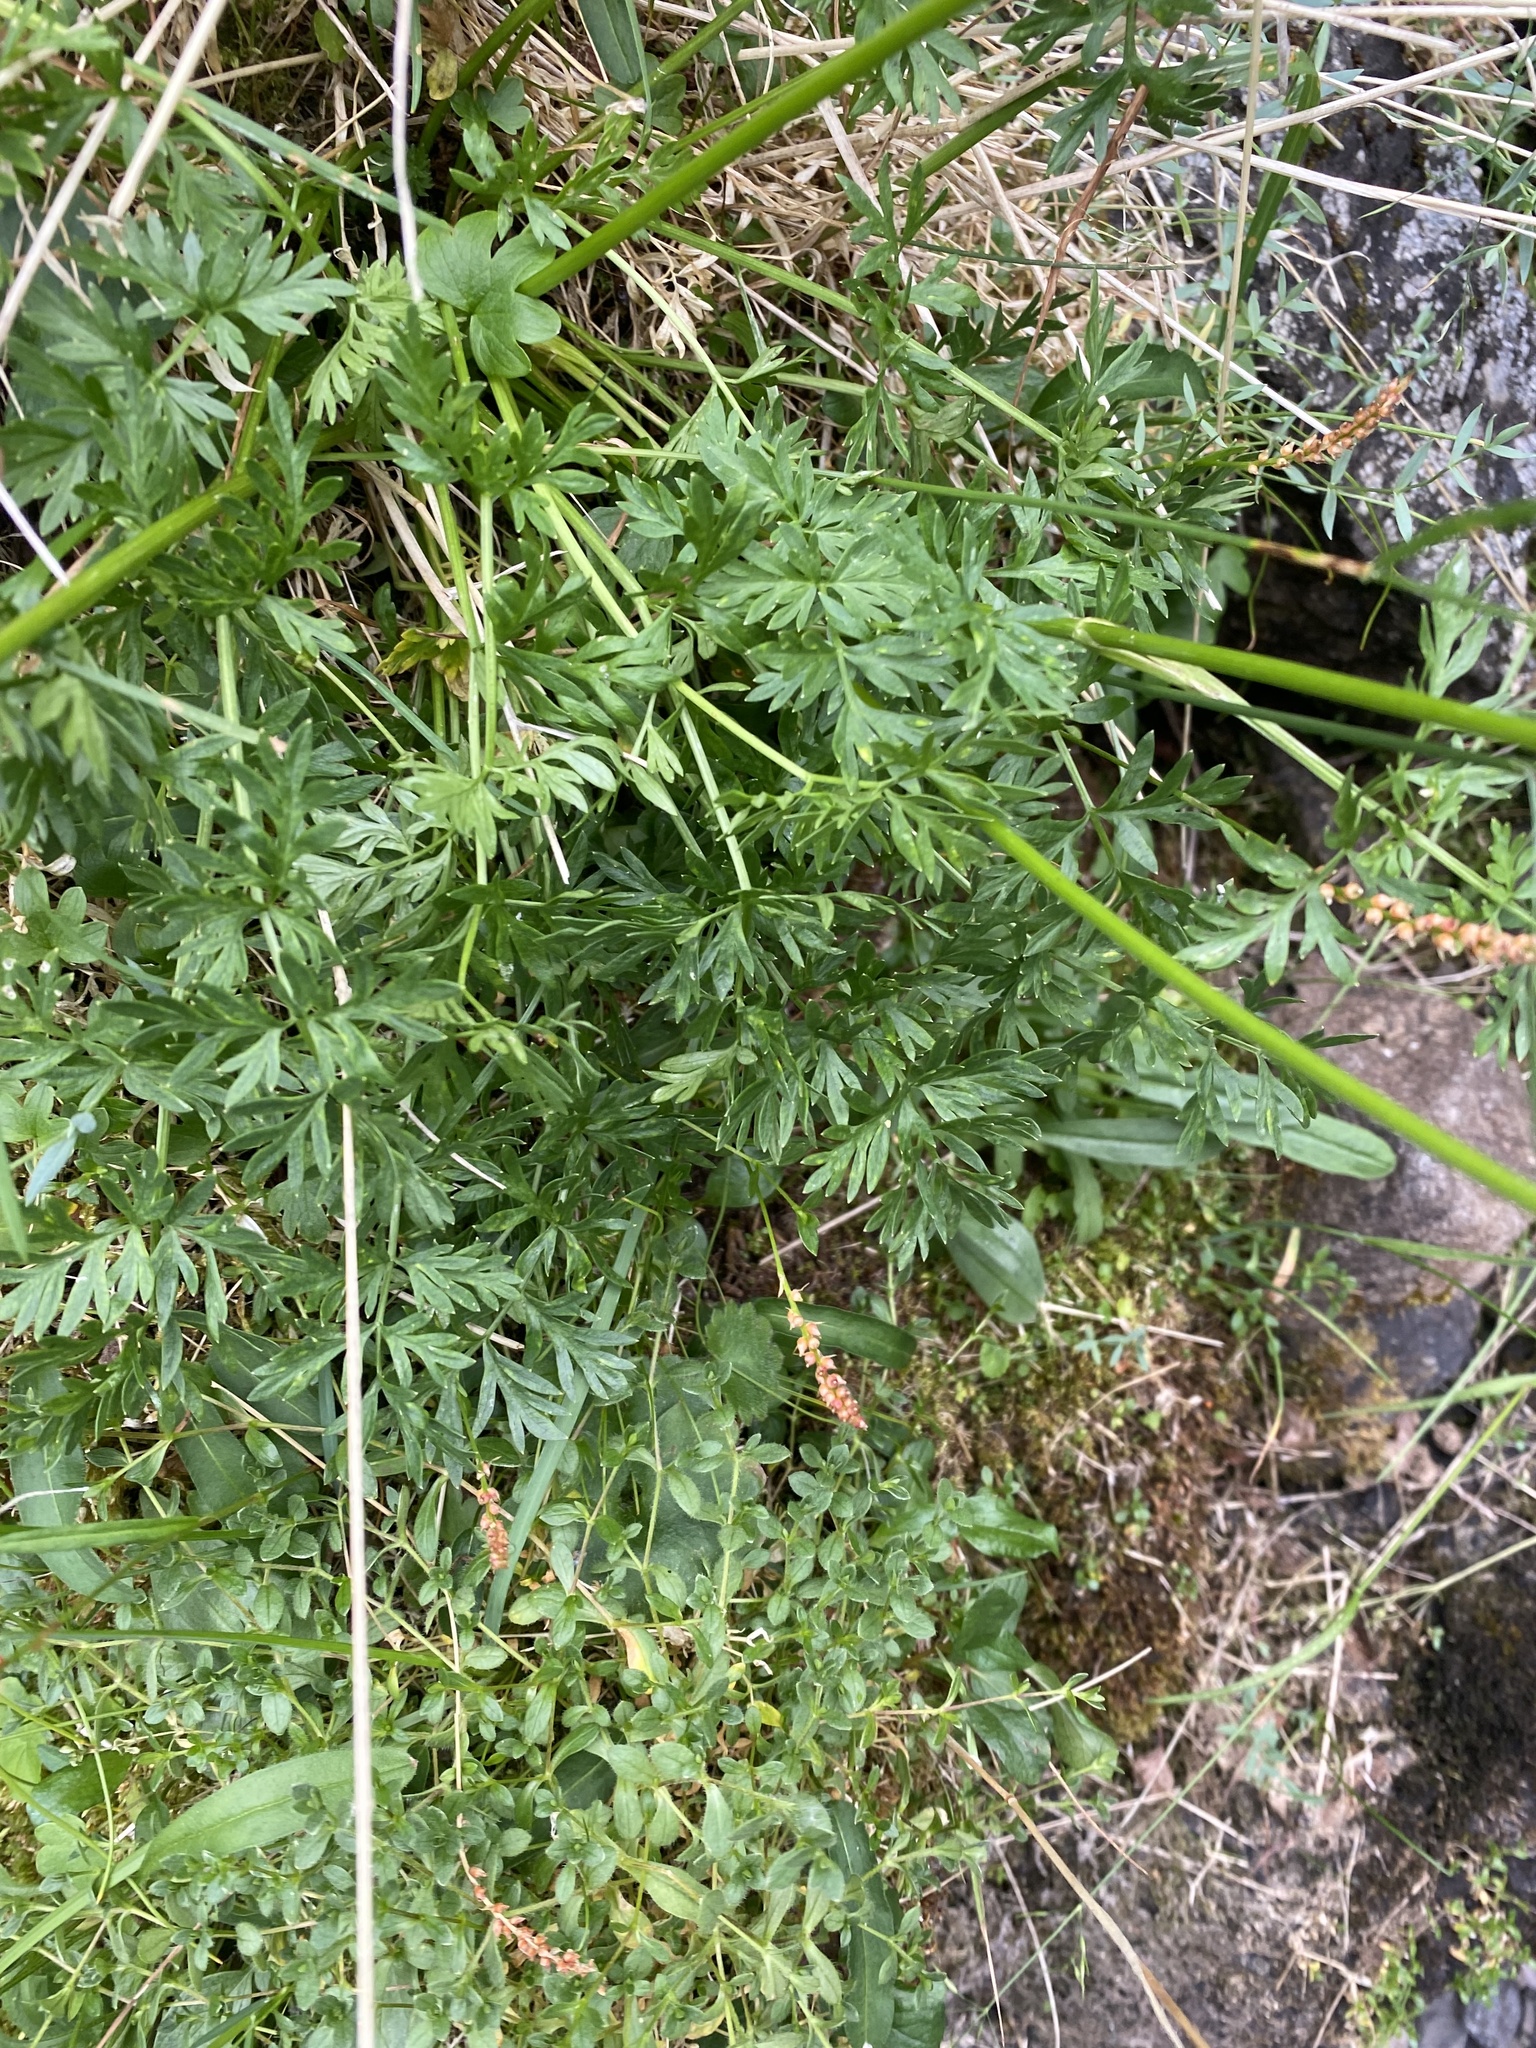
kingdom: Plantae
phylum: Tracheophyta
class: Magnoliopsida
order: Apiales
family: Apiaceae
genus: Pachypleurum
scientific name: Pachypleurum mutellinoides
